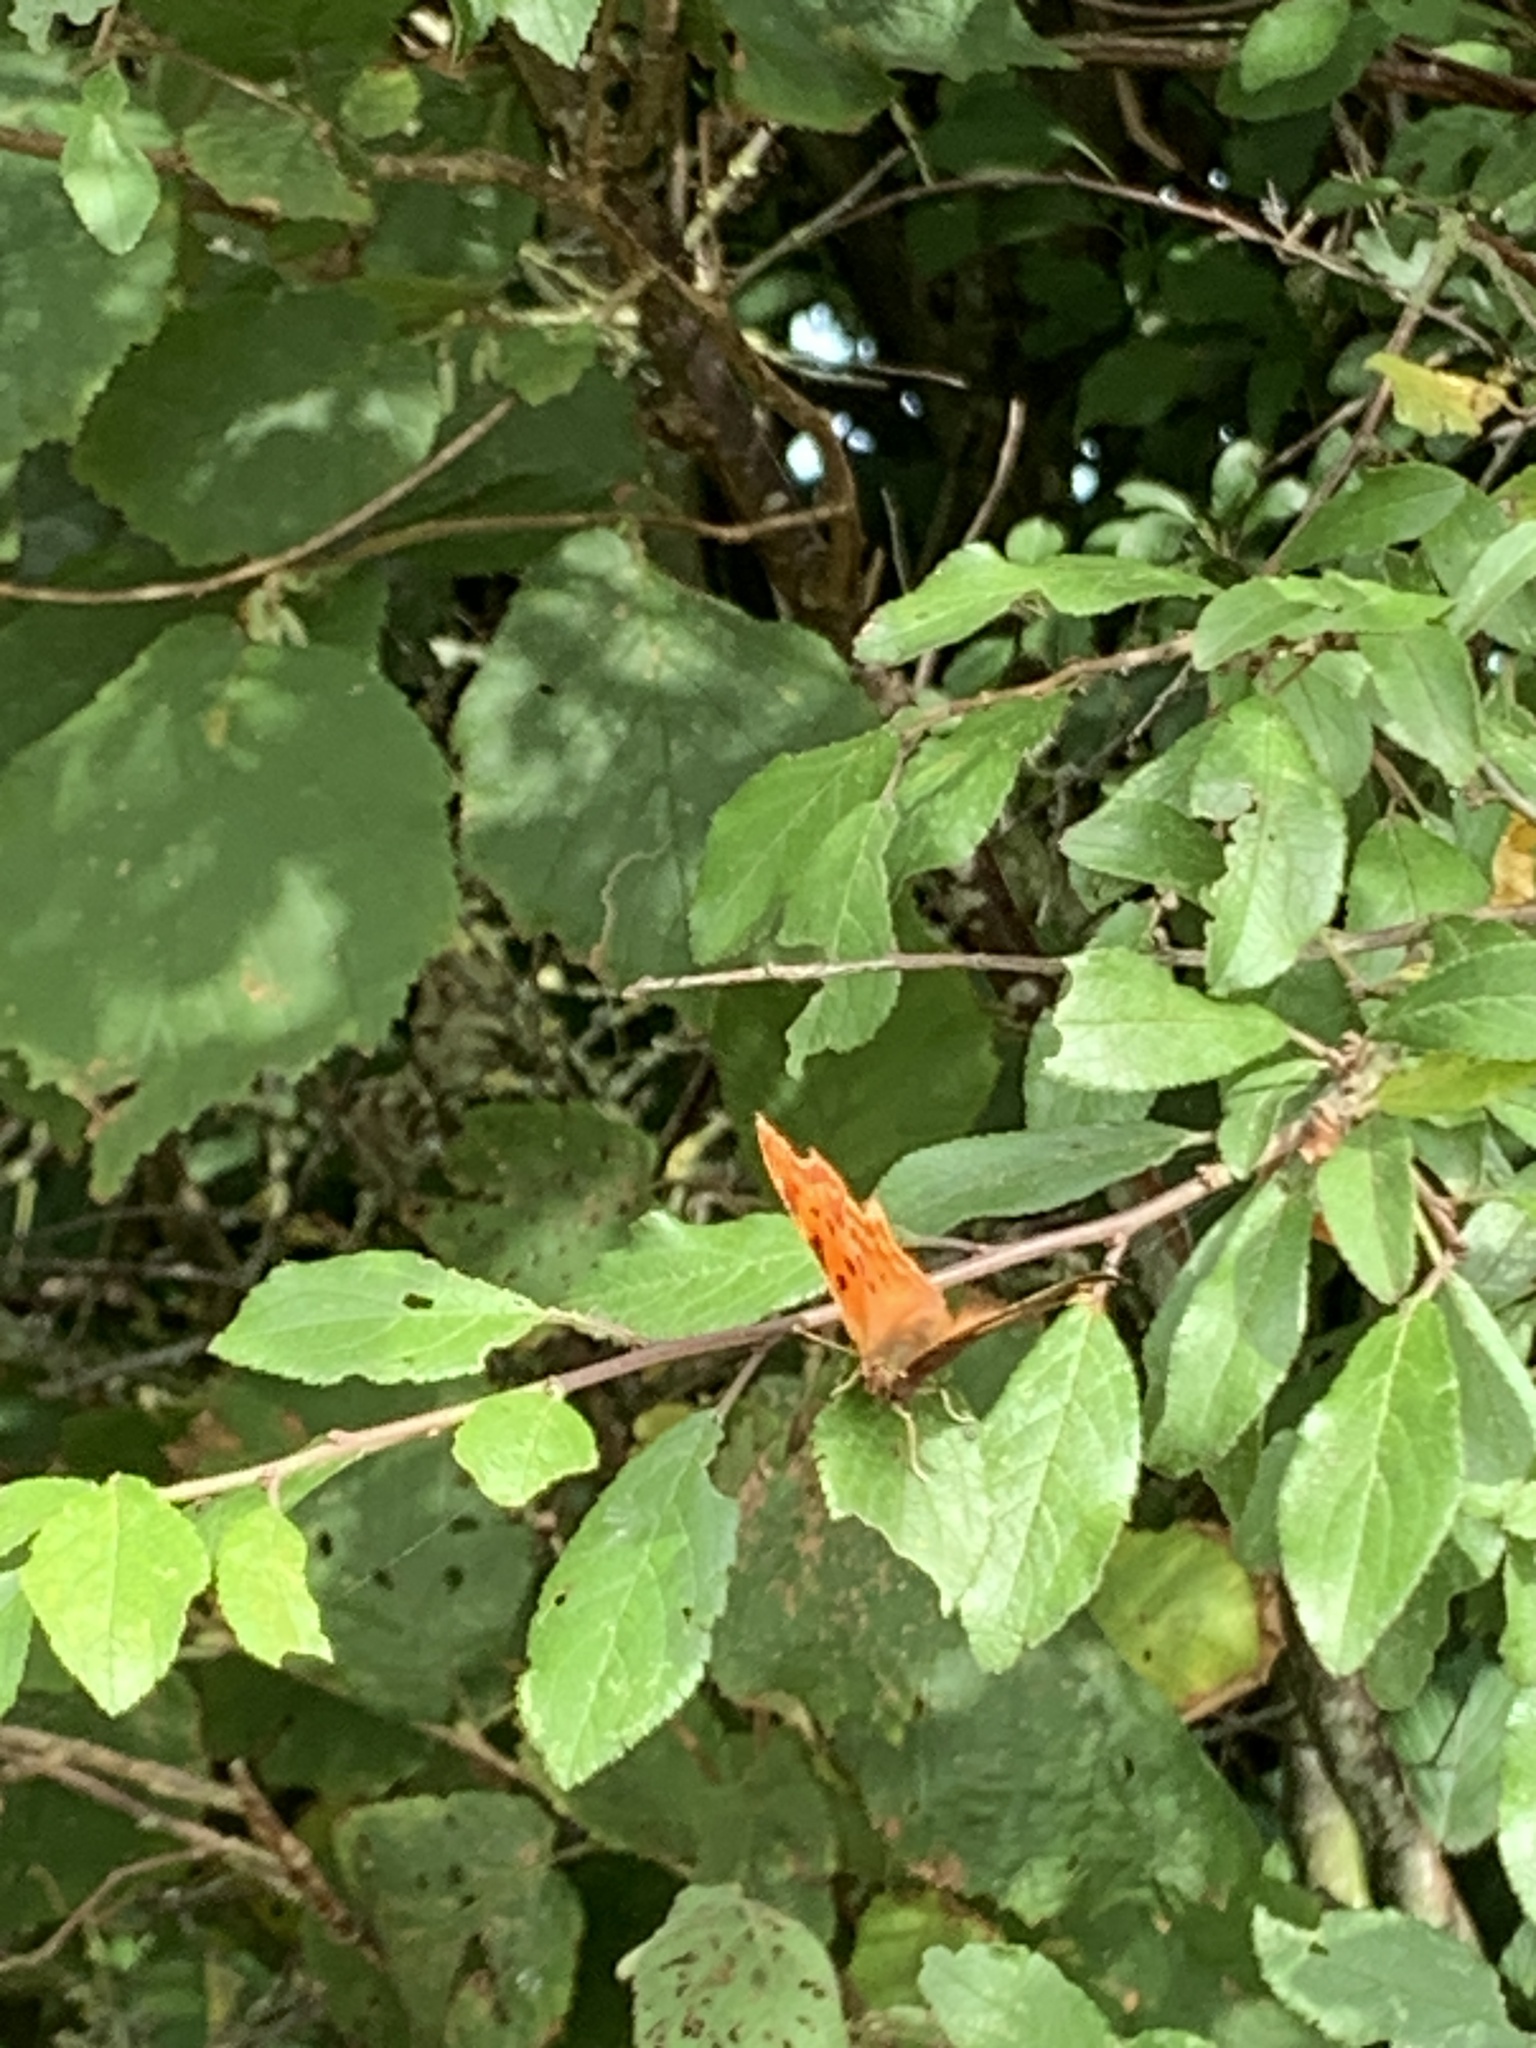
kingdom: Animalia
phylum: Arthropoda
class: Insecta
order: Lepidoptera
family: Nymphalidae
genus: Polygonia
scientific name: Polygonia c-album
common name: Comma
